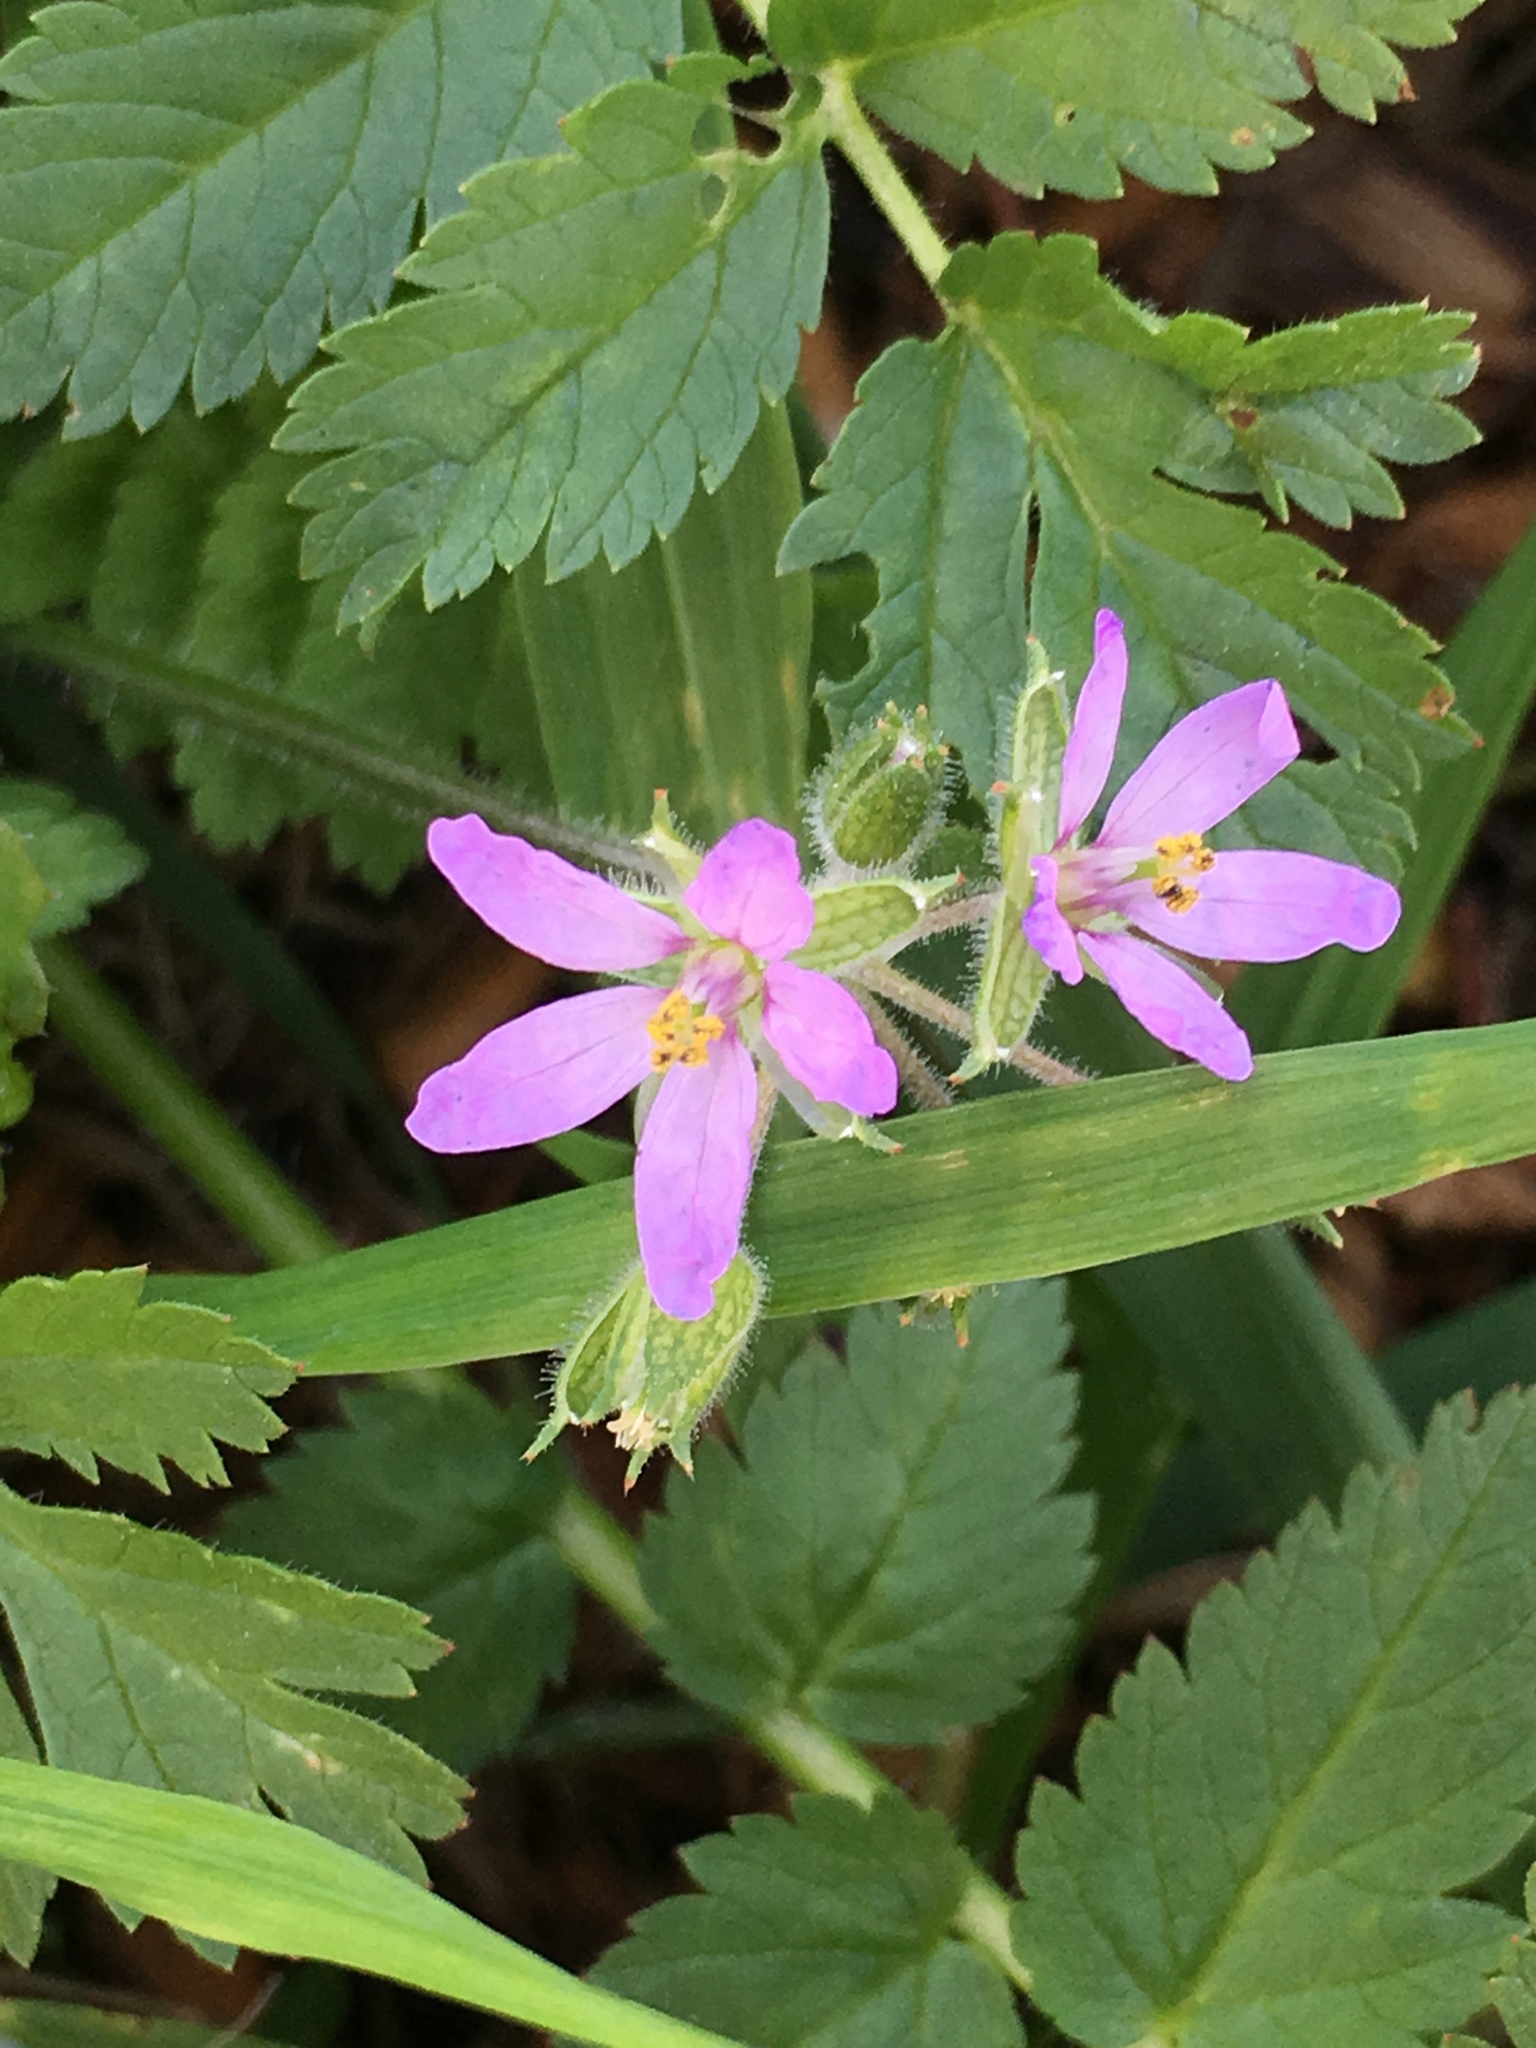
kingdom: Plantae
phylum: Tracheophyta
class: Magnoliopsida
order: Geraniales
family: Geraniaceae
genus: Erodium
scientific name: Erodium moschatum
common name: Musk stork's-bill
